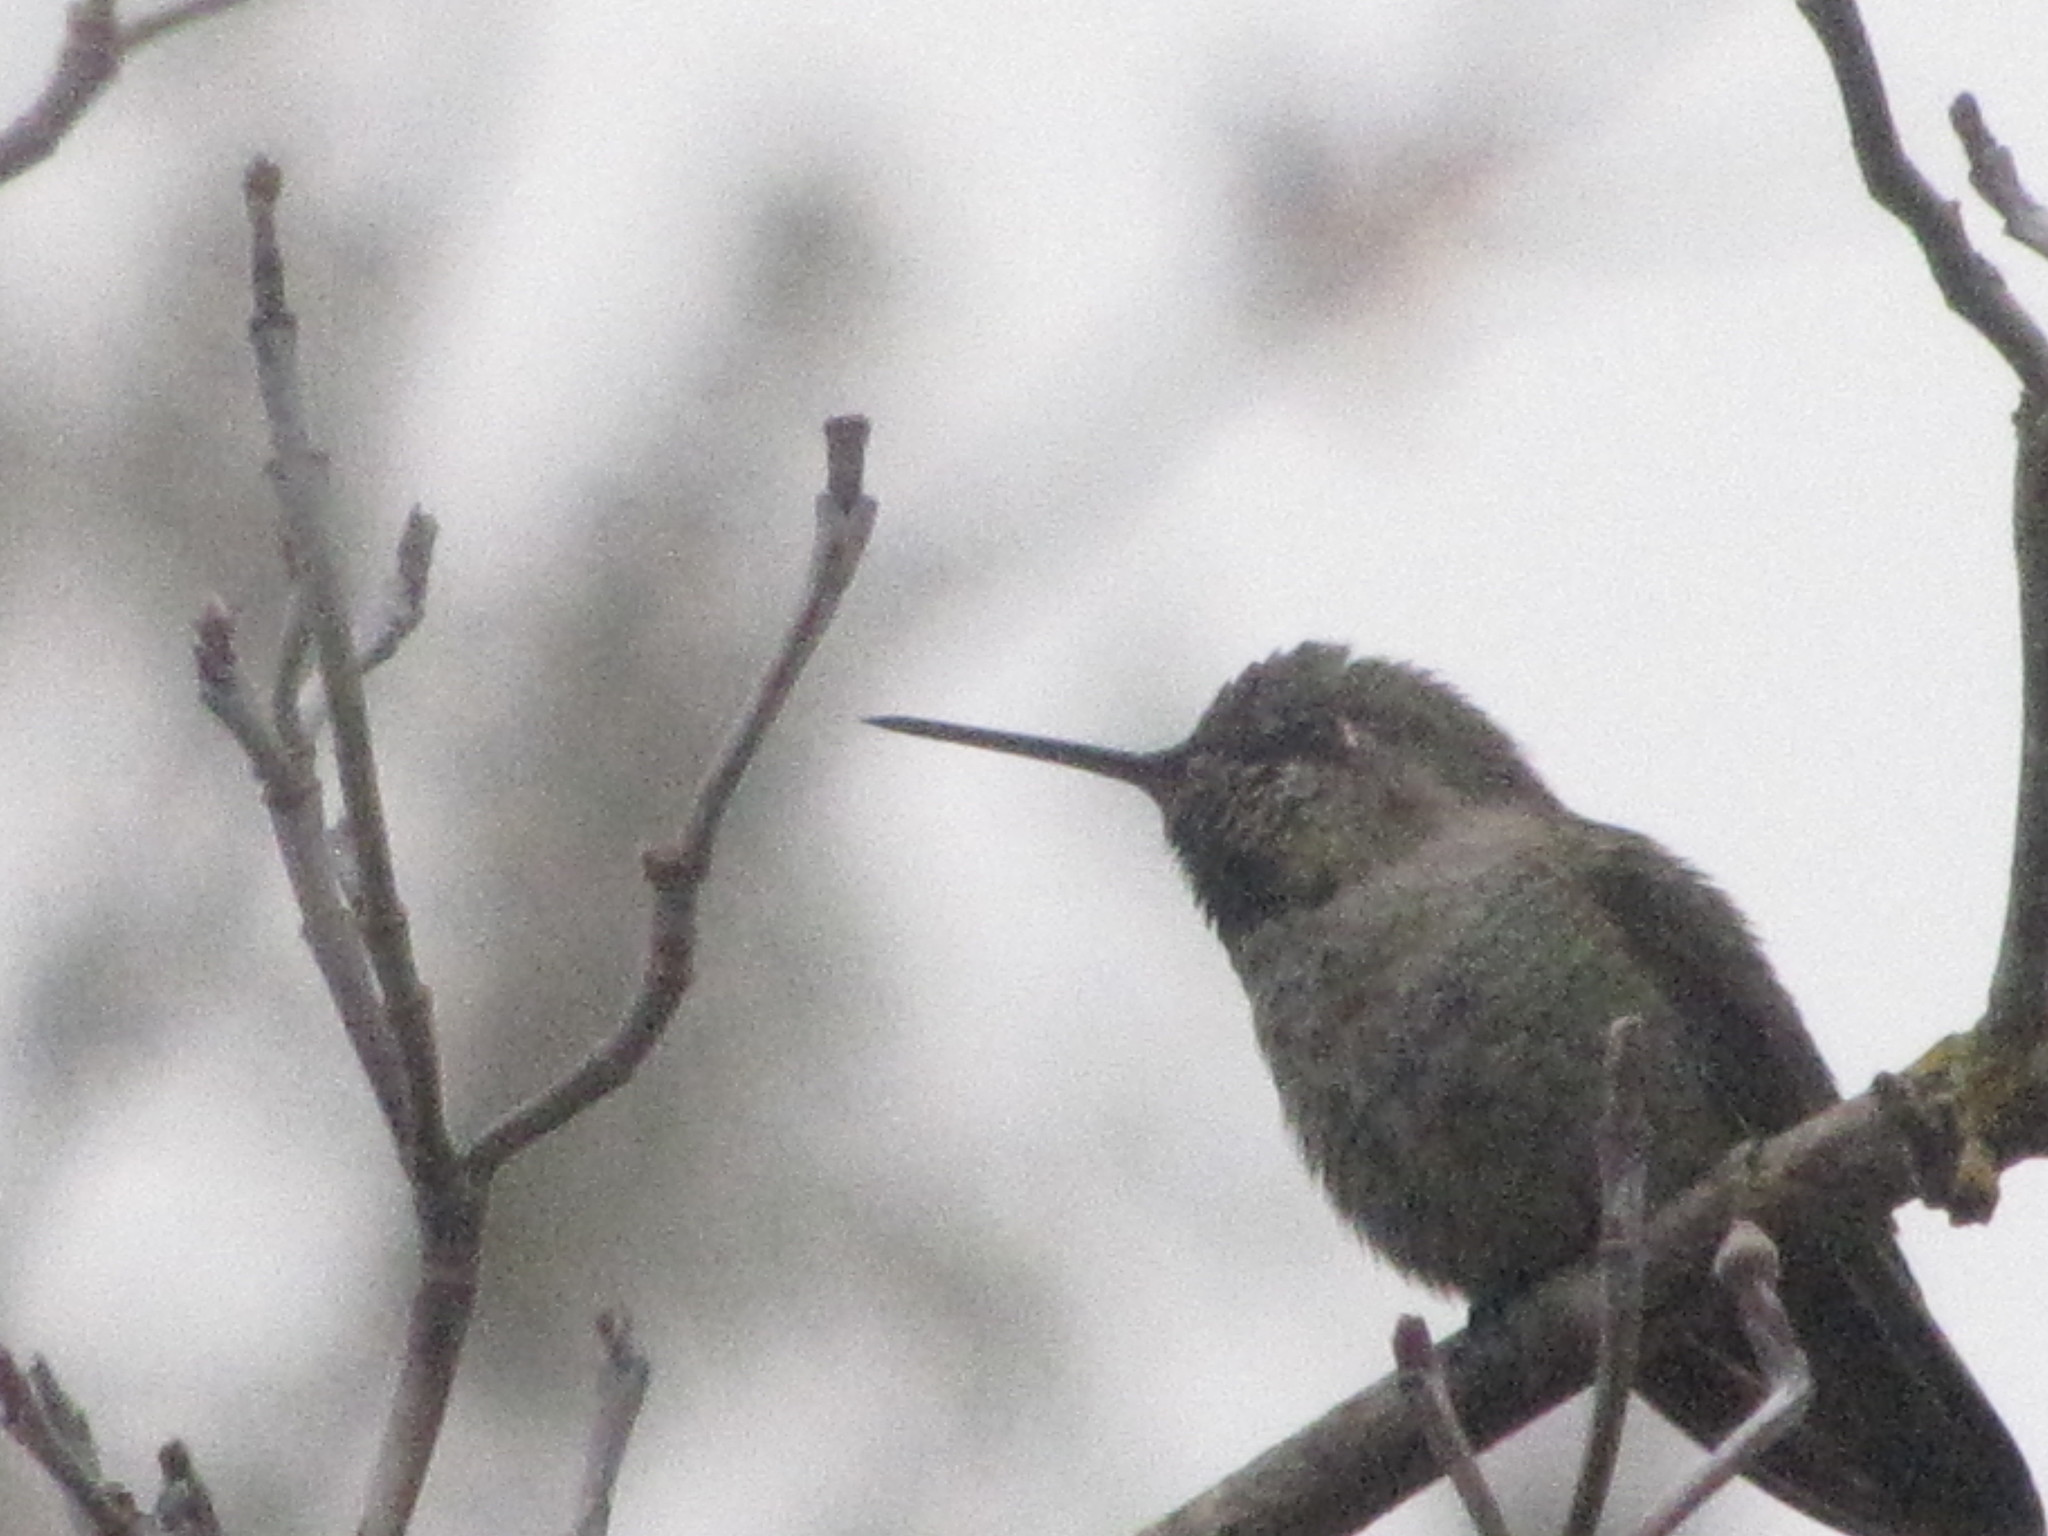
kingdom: Animalia
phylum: Chordata
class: Aves
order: Apodiformes
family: Trochilidae
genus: Calypte
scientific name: Calypte anna
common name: Anna's hummingbird
